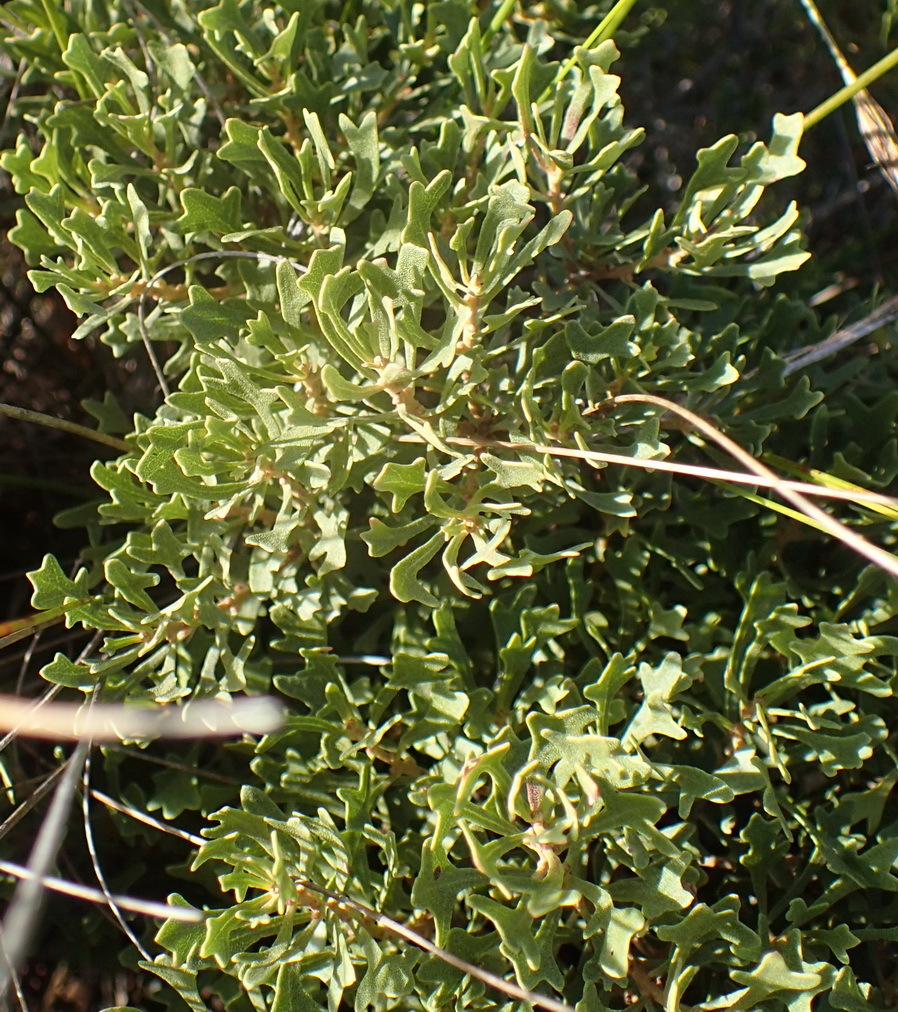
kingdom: Plantae
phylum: Tracheophyta
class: Magnoliopsida
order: Fagales
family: Myricaceae
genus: Morella
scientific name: Morella quercifolia
